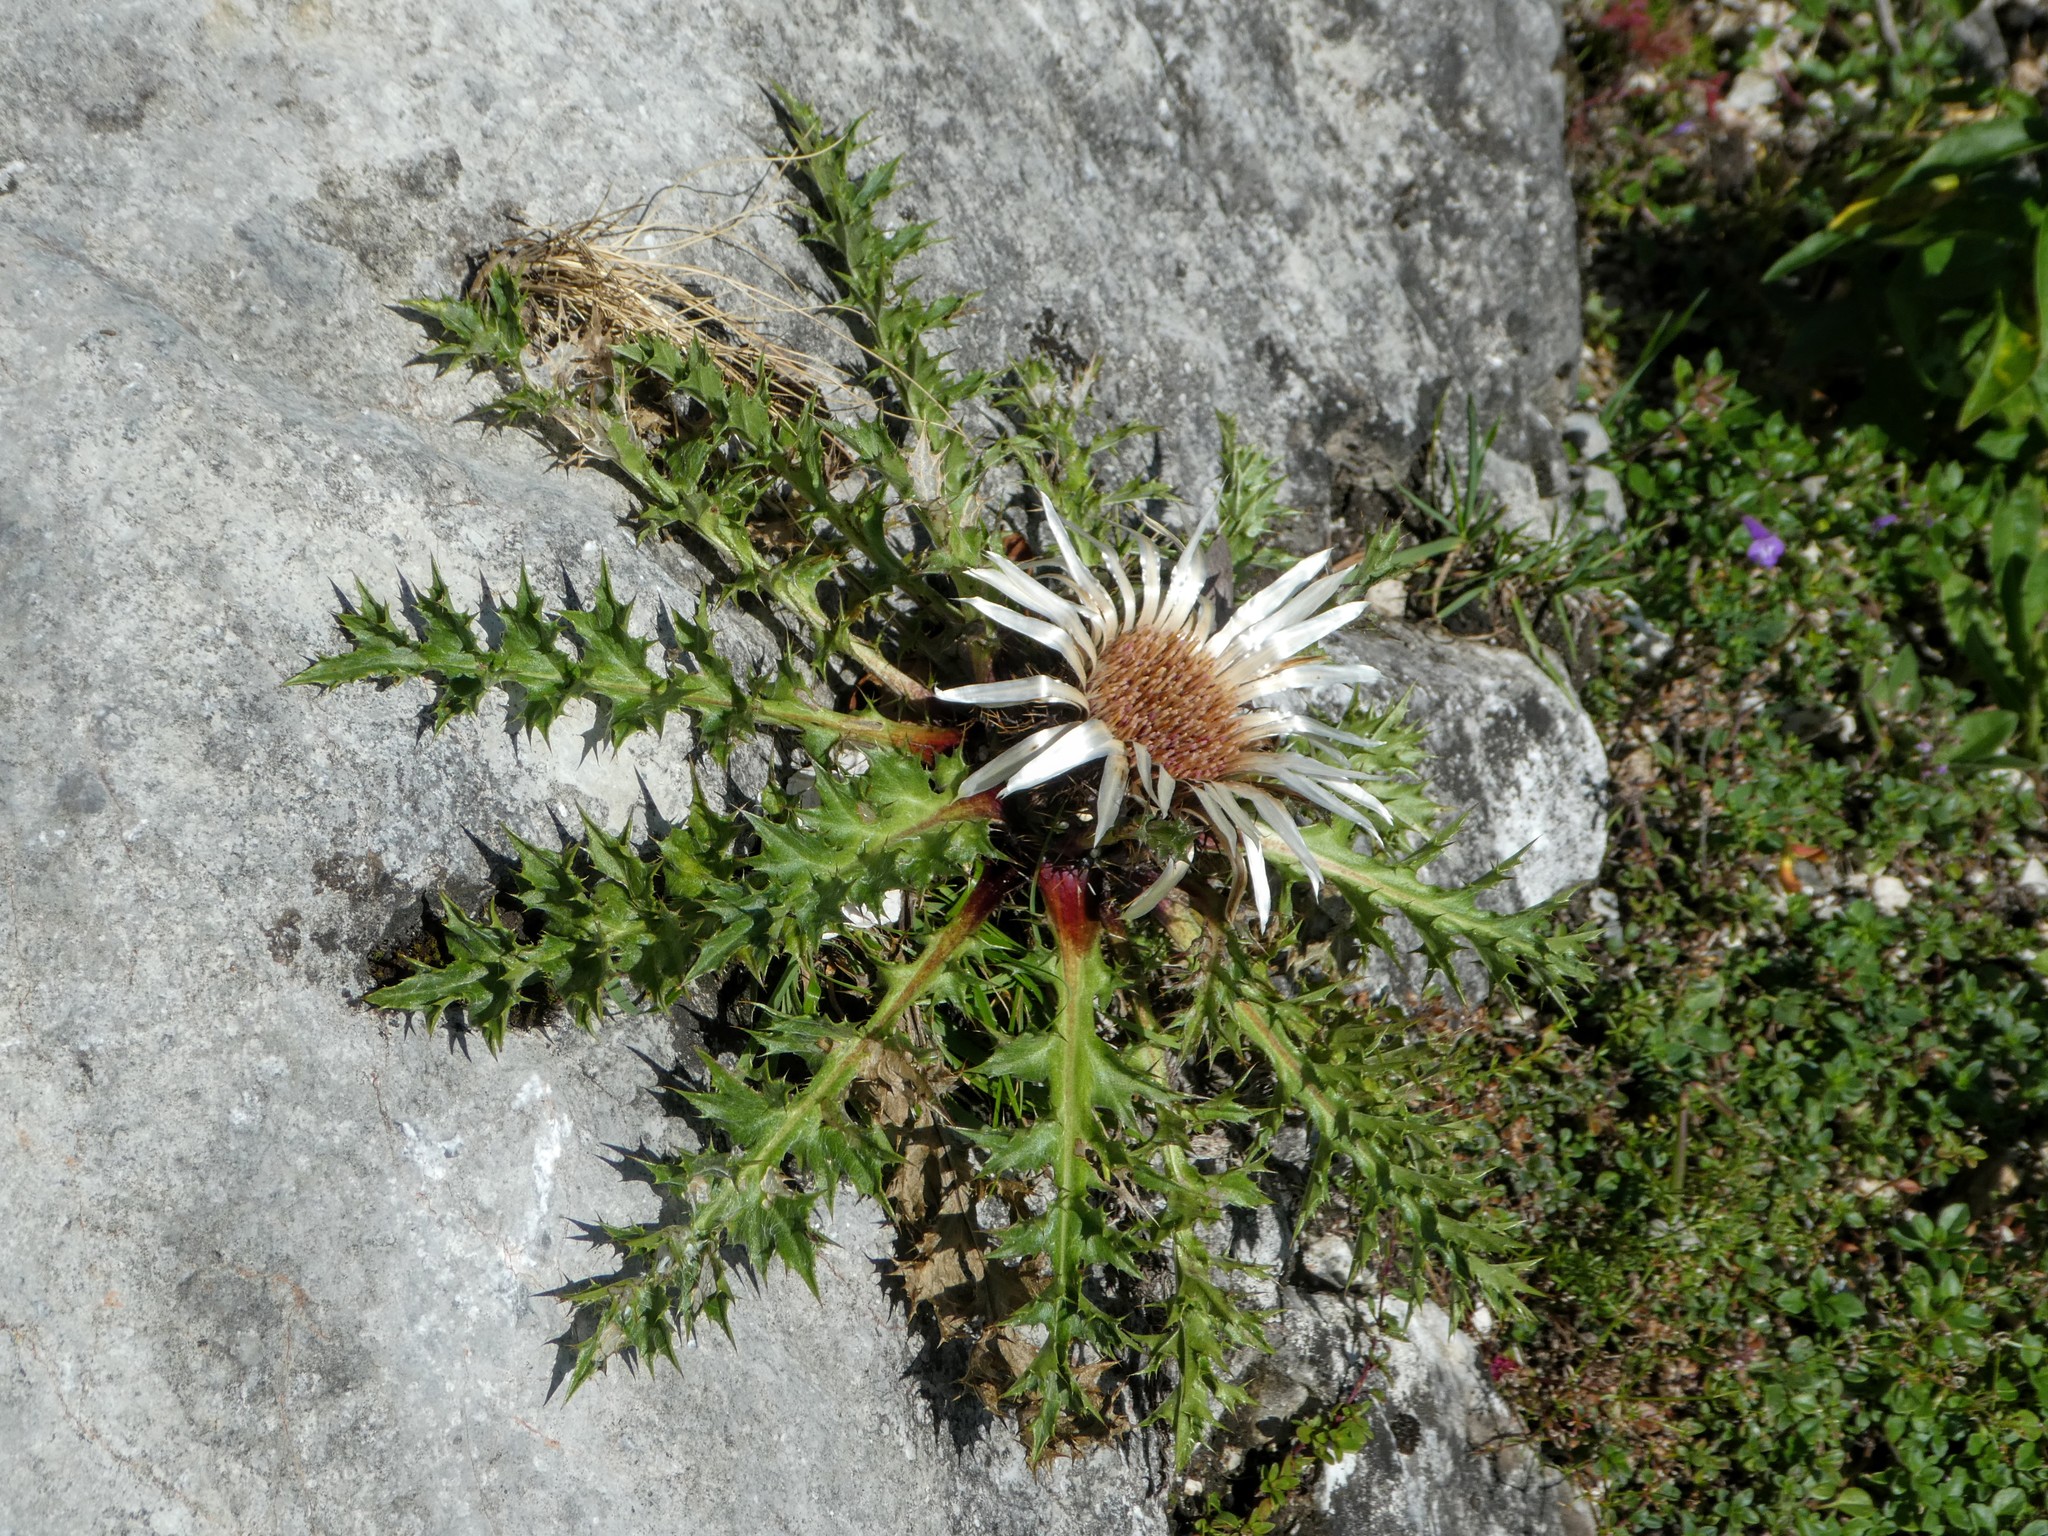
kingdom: Plantae
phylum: Tracheophyta
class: Magnoliopsida
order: Asterales
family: Asteraceae
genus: Carlina
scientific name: Carlina acaulis
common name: Stemless carline thistle
